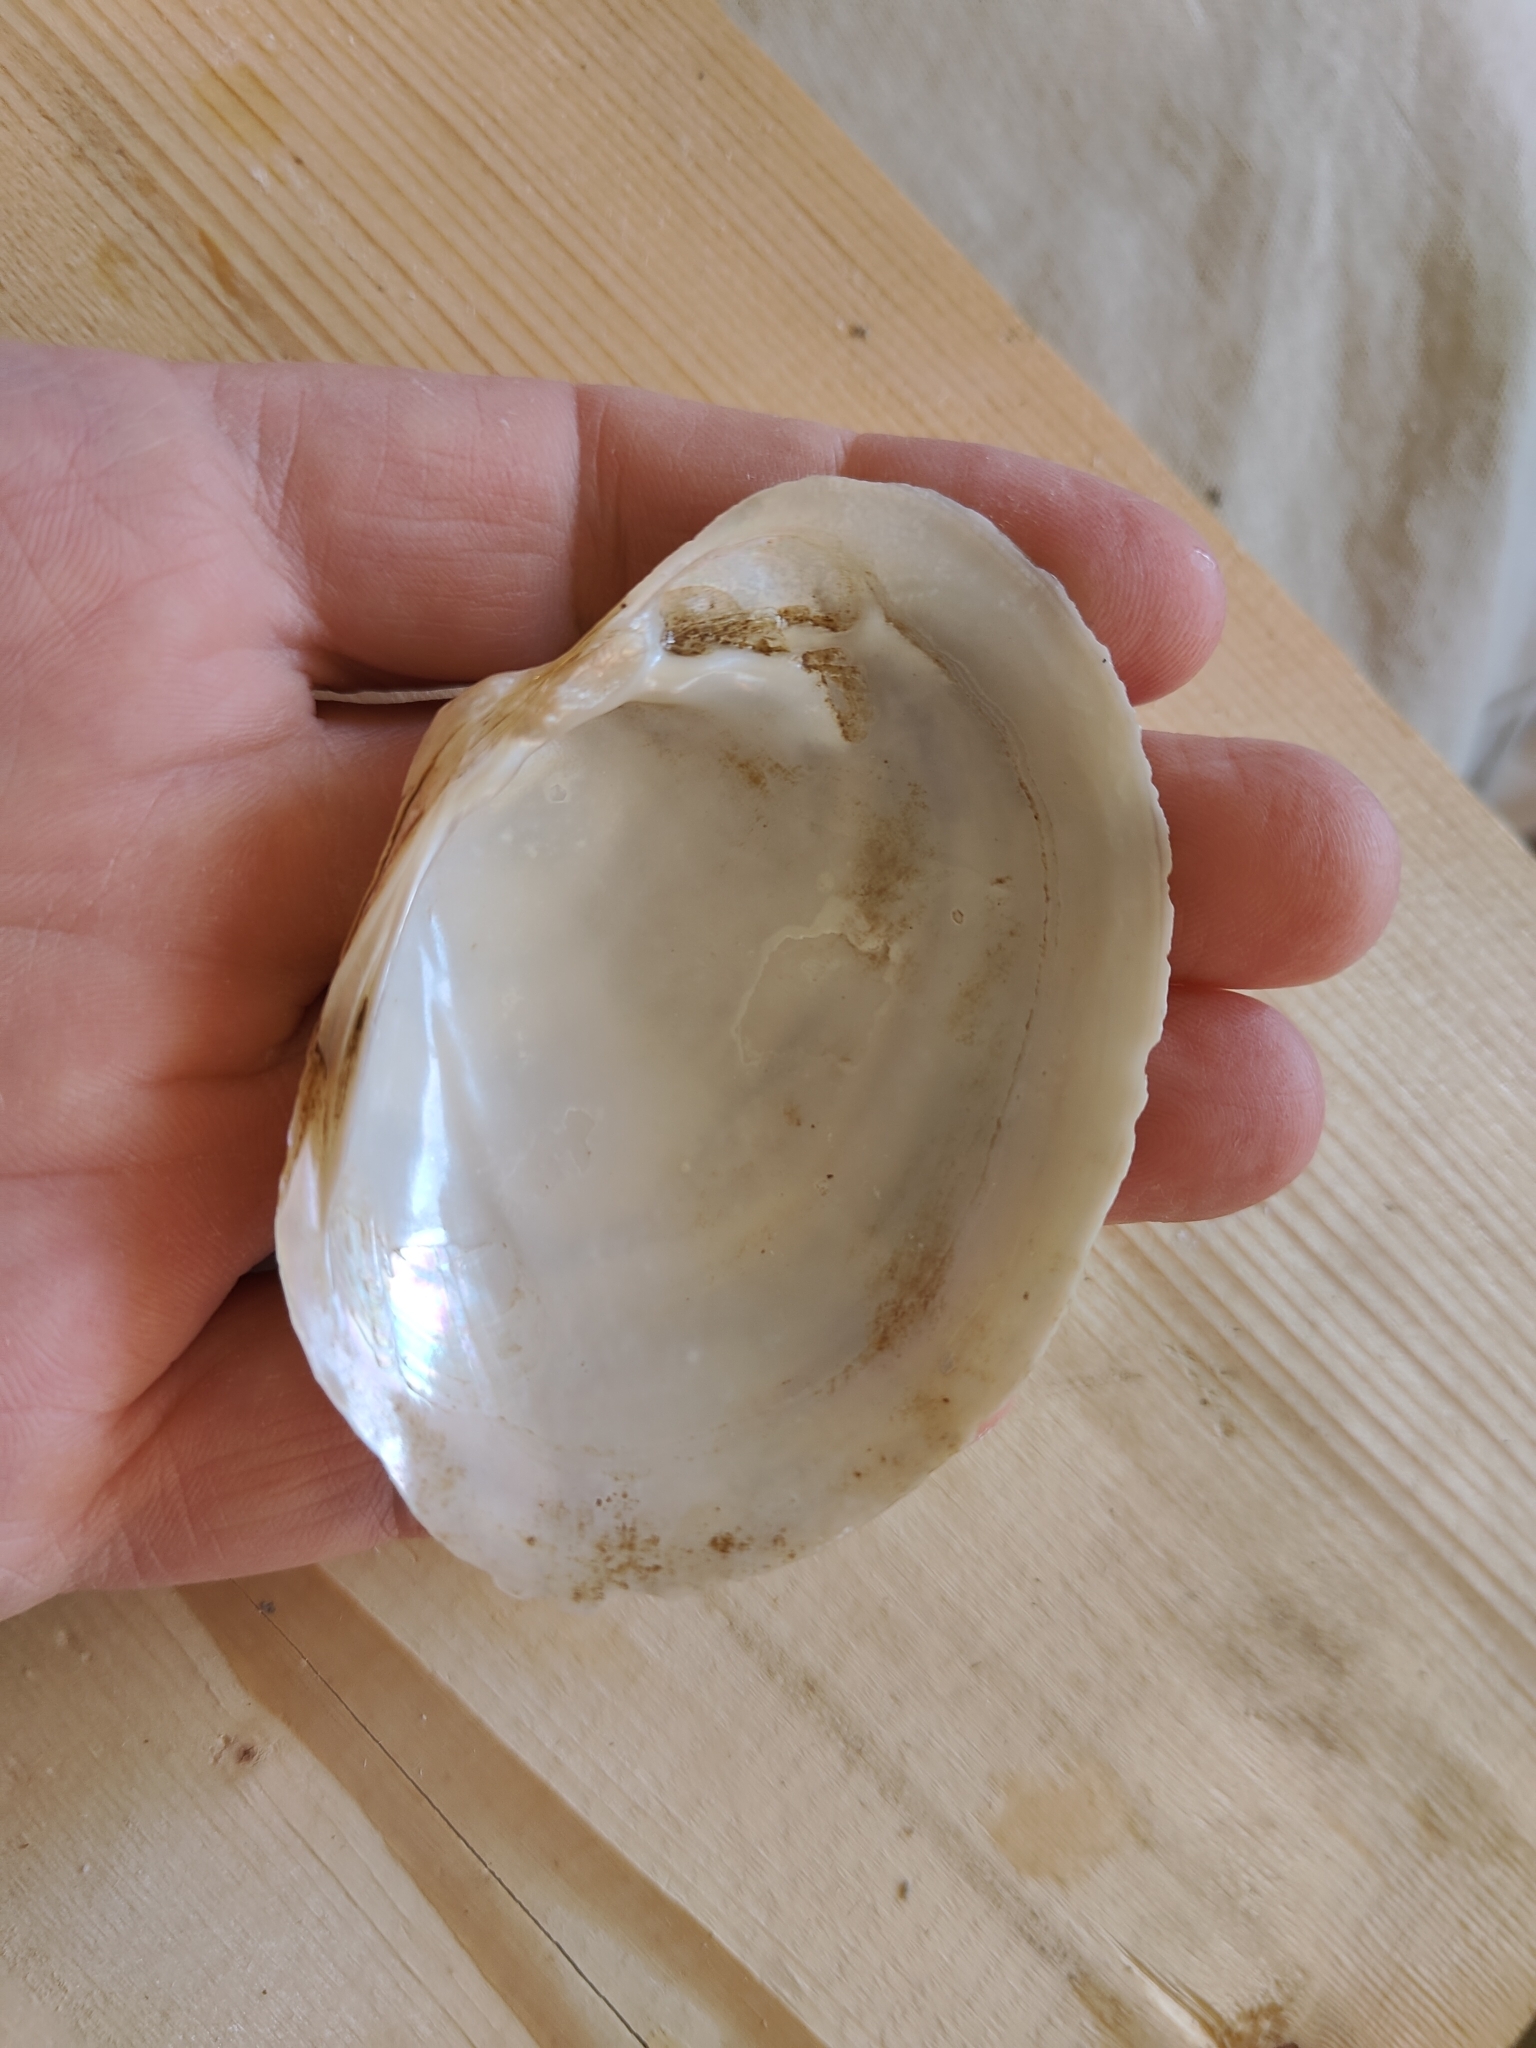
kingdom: Animalia
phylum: Mollusca
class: Bivalvia
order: Unionida
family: Unionidae
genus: Lampsilis
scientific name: Lampsilis cardium
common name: Plain pocketbook
